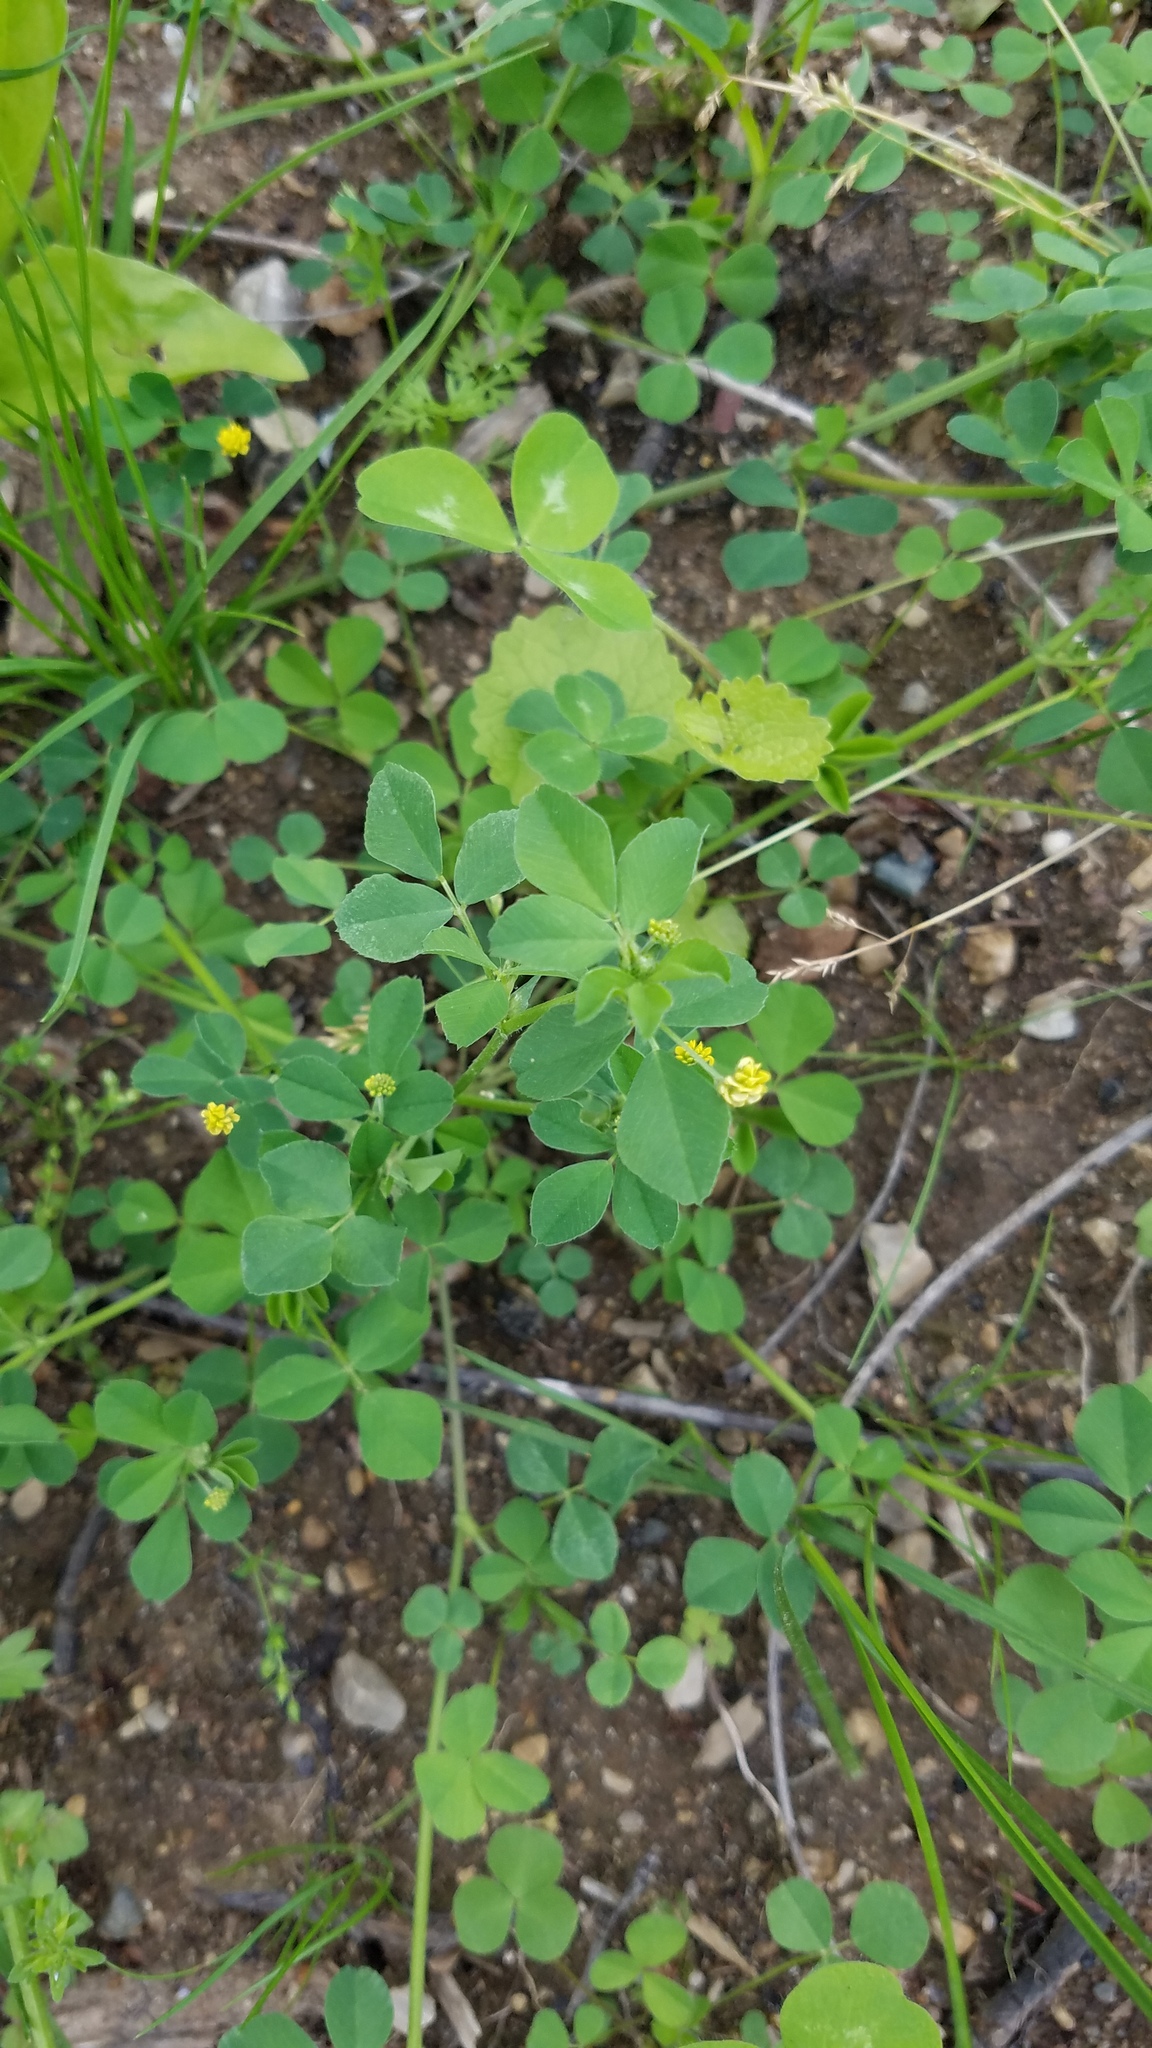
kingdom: Plantae
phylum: Tracheophyta
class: Magnoliopsida
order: Fabales
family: Fabaceae
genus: Medicago
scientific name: Medicago lupulina
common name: Black medick
